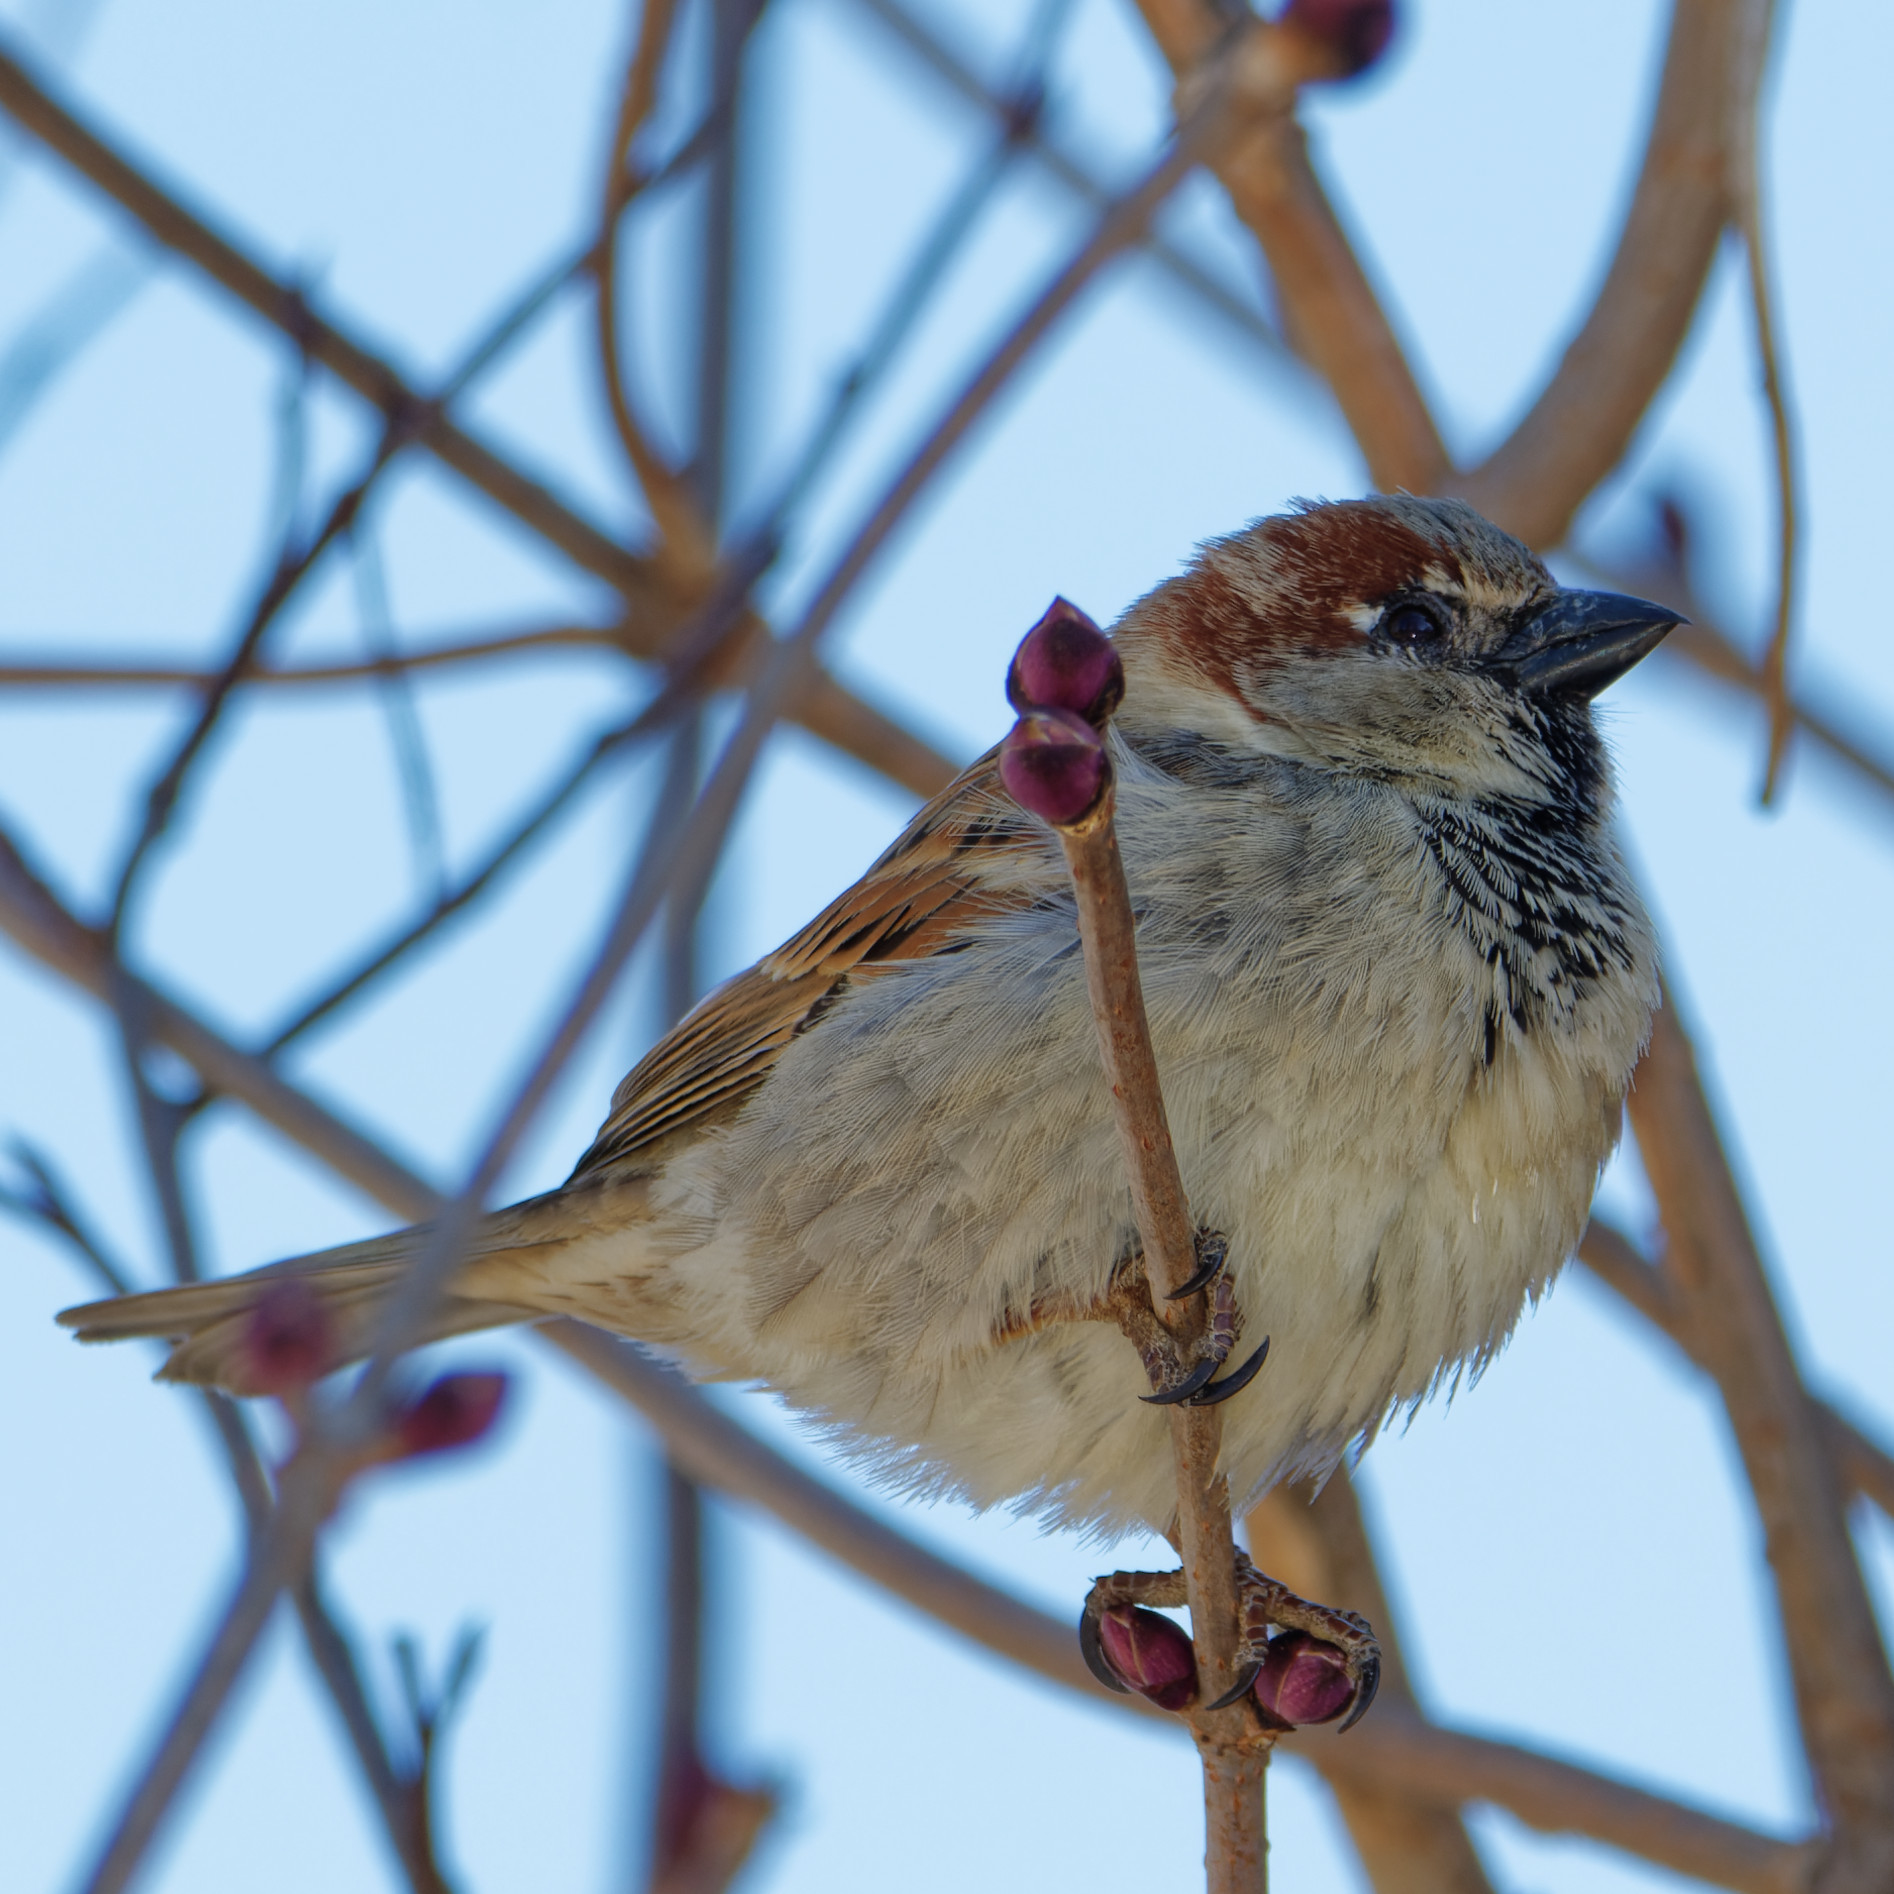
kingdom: Animalia
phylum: Chordata
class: Aves
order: Passeriformes
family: Passeridae
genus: Passer
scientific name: Passer domesticus
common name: House sparrow
